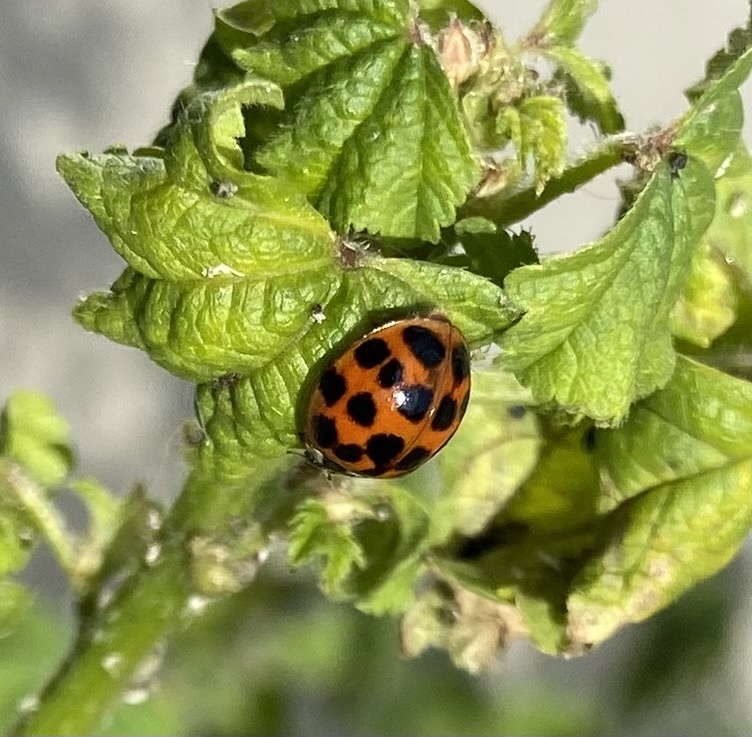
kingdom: Animalia
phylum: Arthropoda
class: Insecta
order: Coleoptera
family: Coccinellidae
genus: Harmonia
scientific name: Harmonia axyridis
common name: Harlequin ladybird
